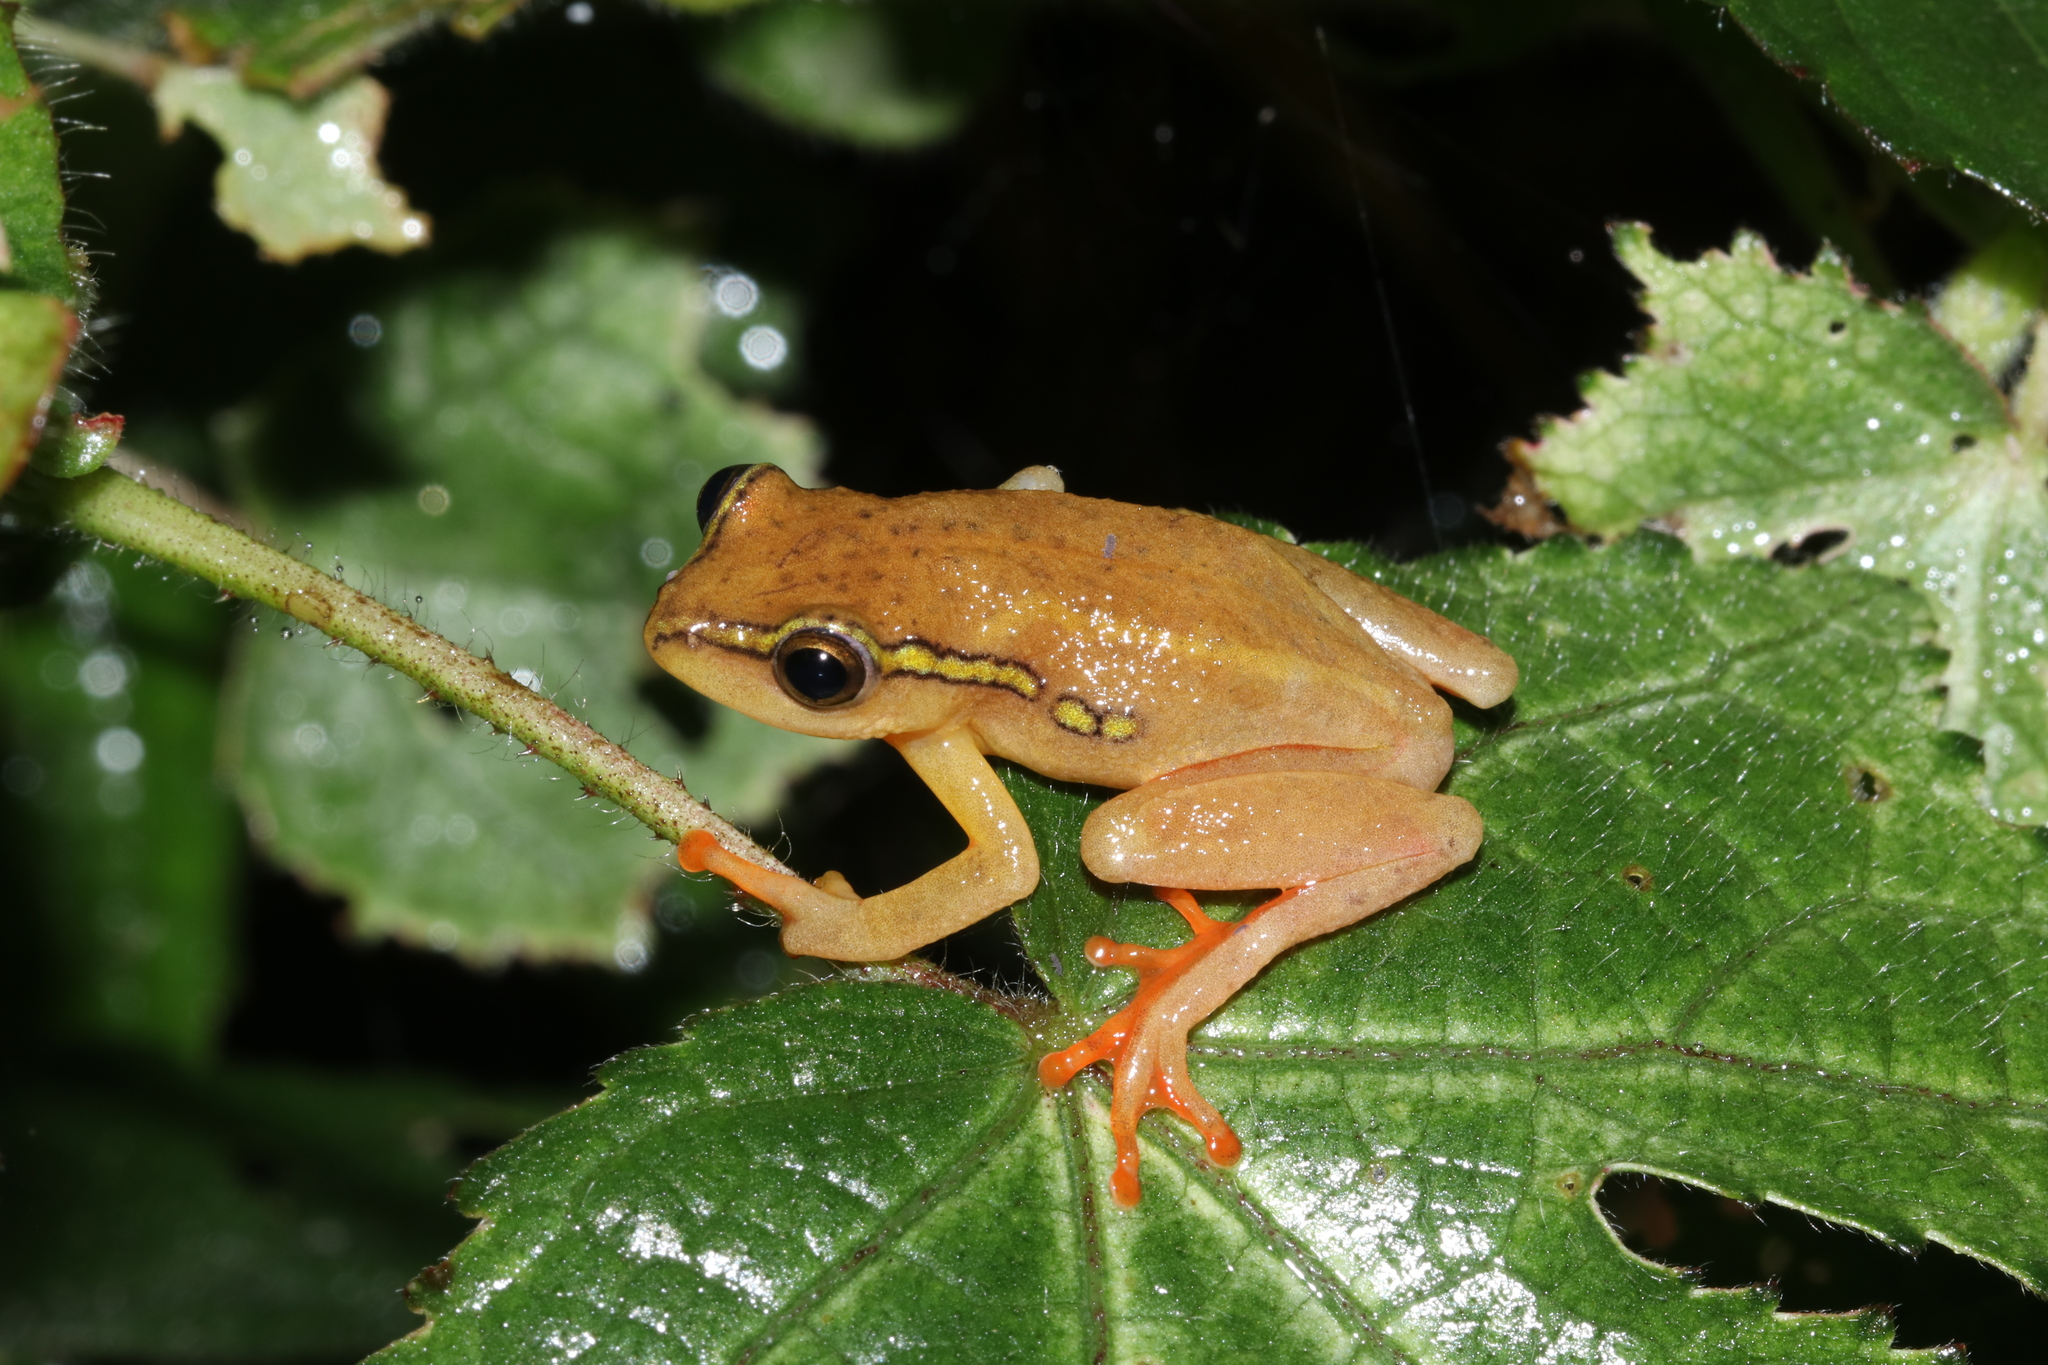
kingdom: Animalia
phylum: Chordata
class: Amphibia
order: Anura
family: Hyperoliidae
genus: Hyperolius
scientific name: Hyperolius substriatus
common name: Spotted reed frog
